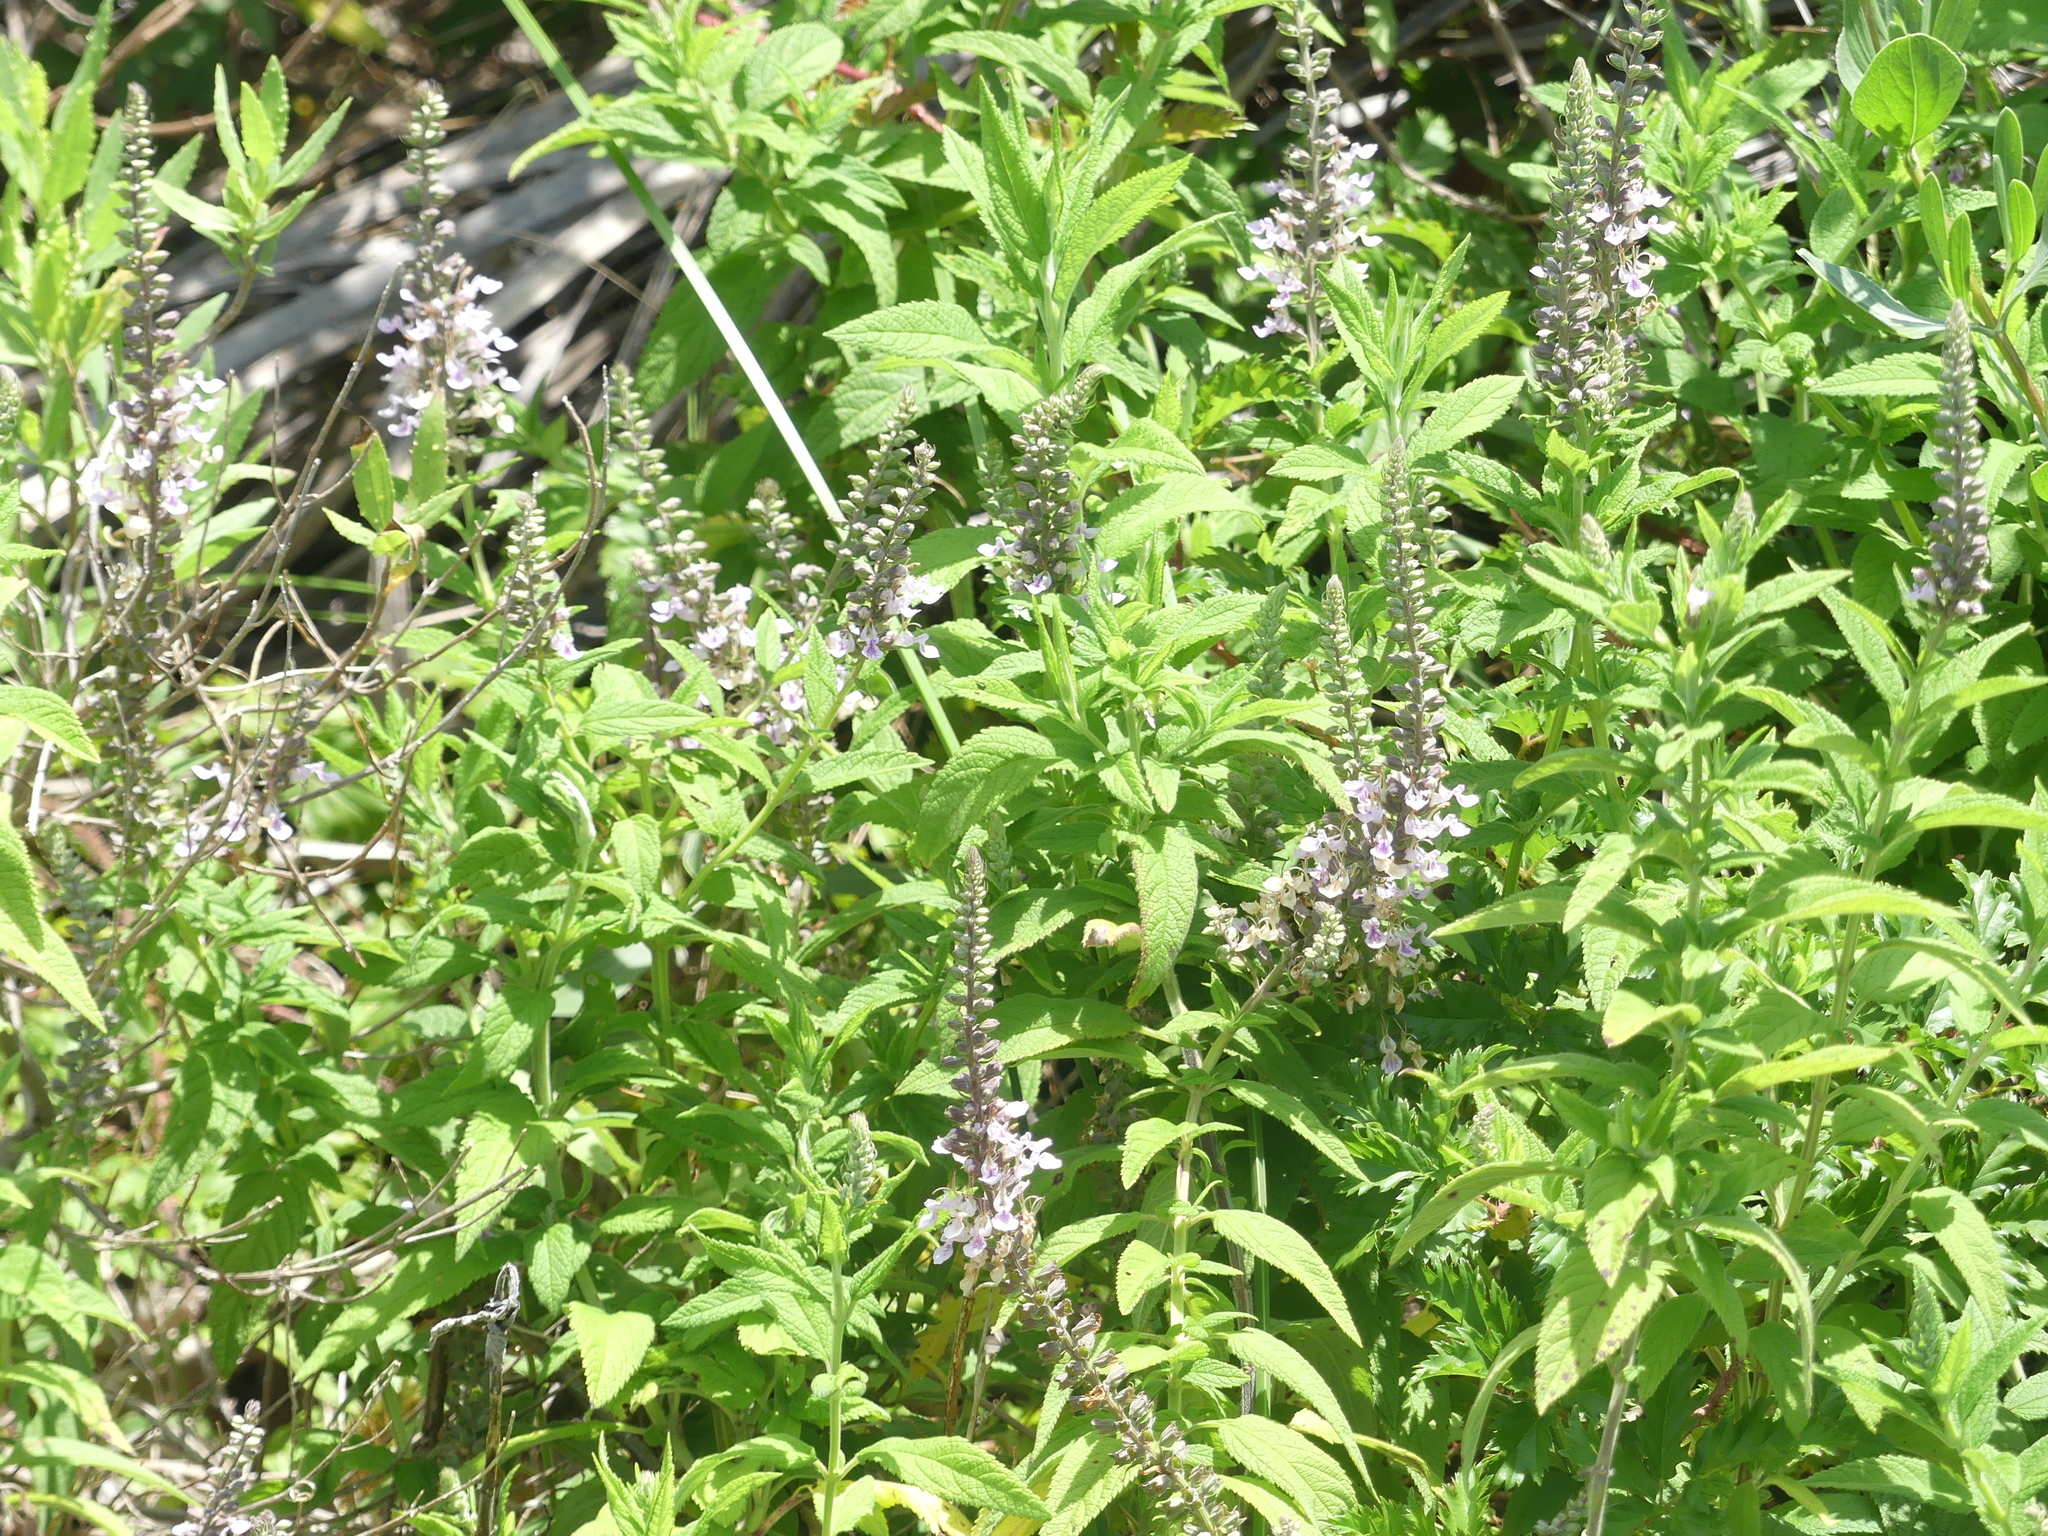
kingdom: Plantae
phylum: Tracheophyta
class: Magnoliopsida
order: Lamiales
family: Lamiaceae
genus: Teucrium
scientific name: Teucrium canadense
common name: American germander
